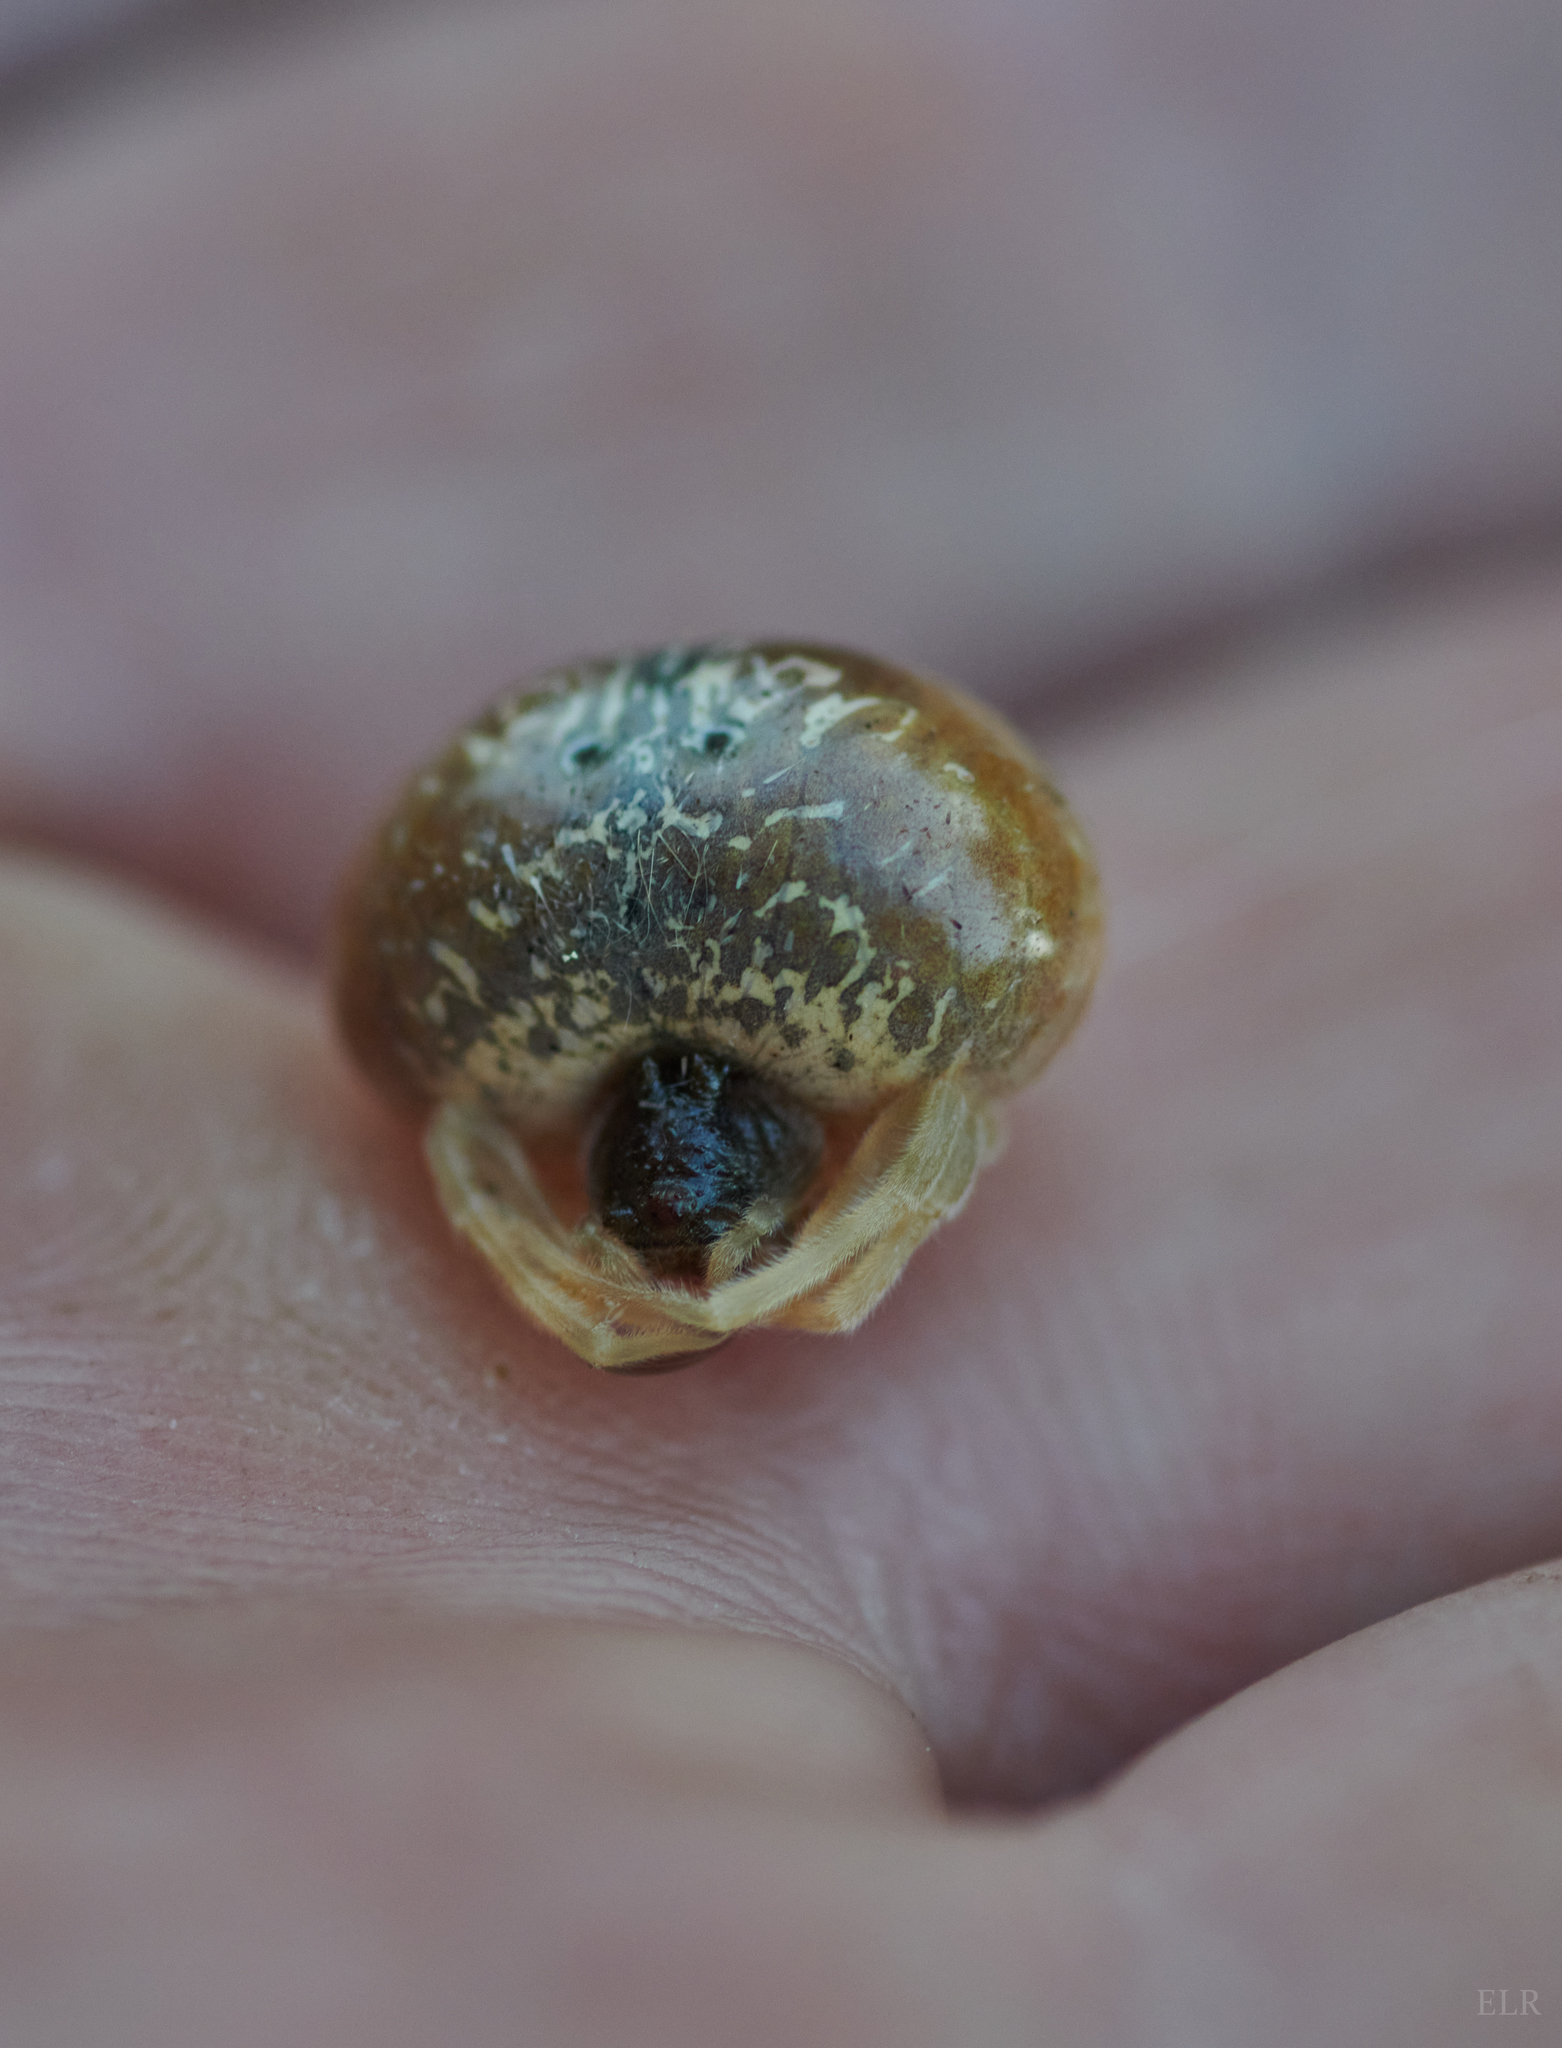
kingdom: Animalia
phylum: Arthropoda
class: Arachnida
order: Araneae
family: Araneidae
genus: Mastophora
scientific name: Mastophora yeargani
